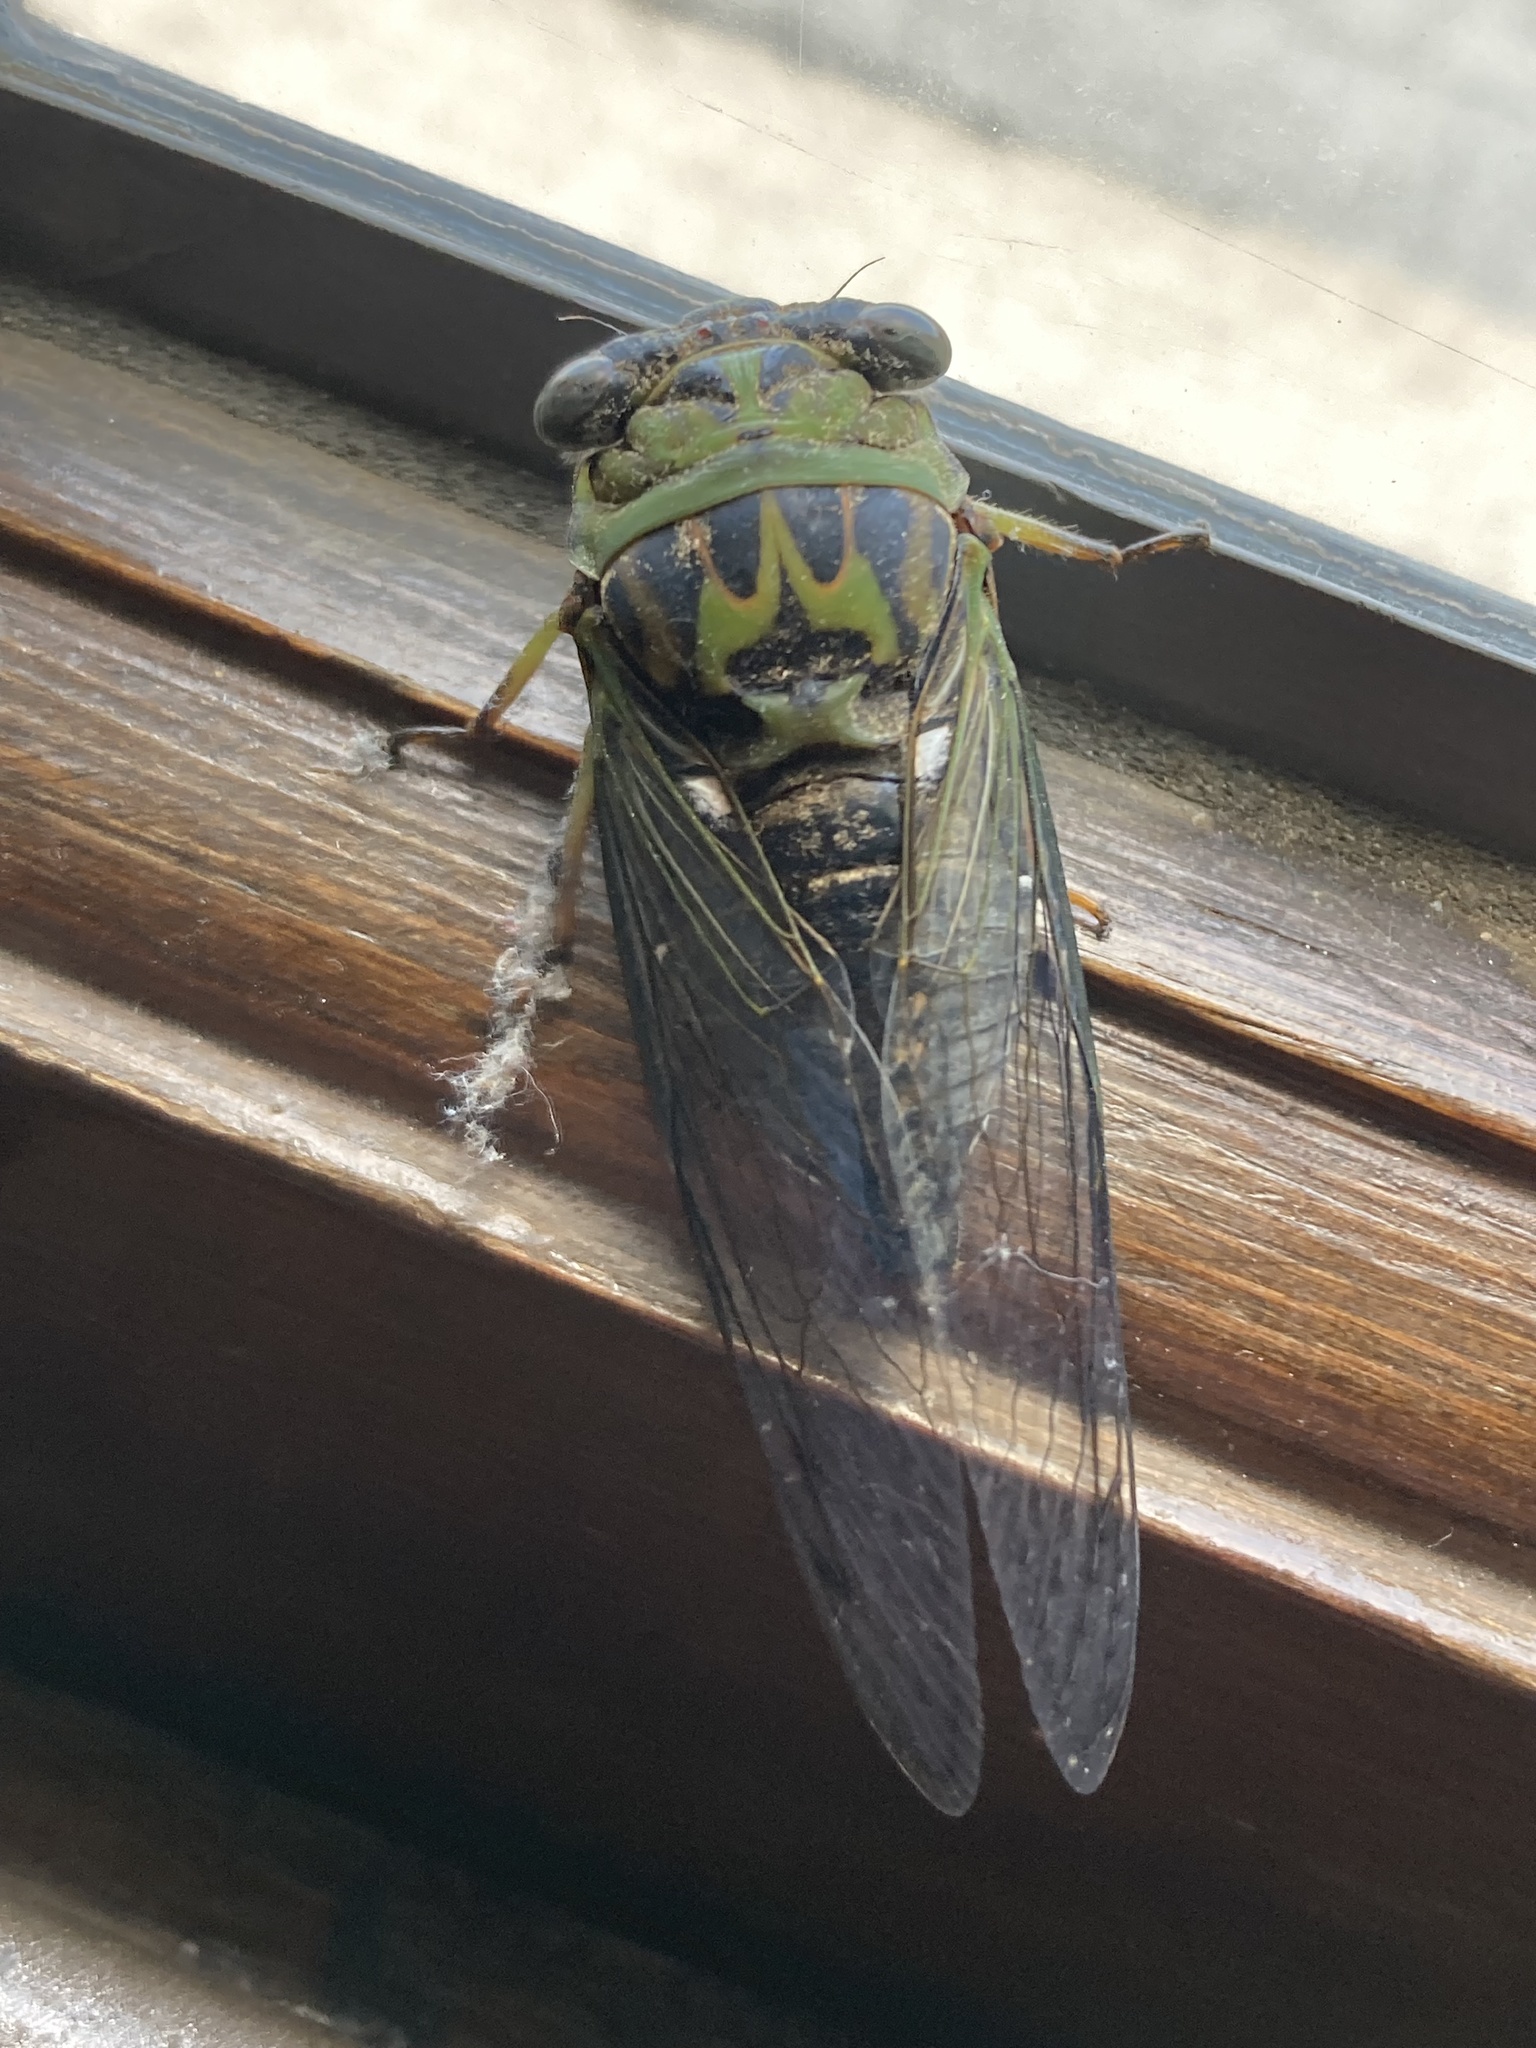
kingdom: Animalia
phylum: Arthropoda
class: Insecta
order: Hemiptera
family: Cicadidae
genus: Neotibicen
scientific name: Neotibicen pruinosus
